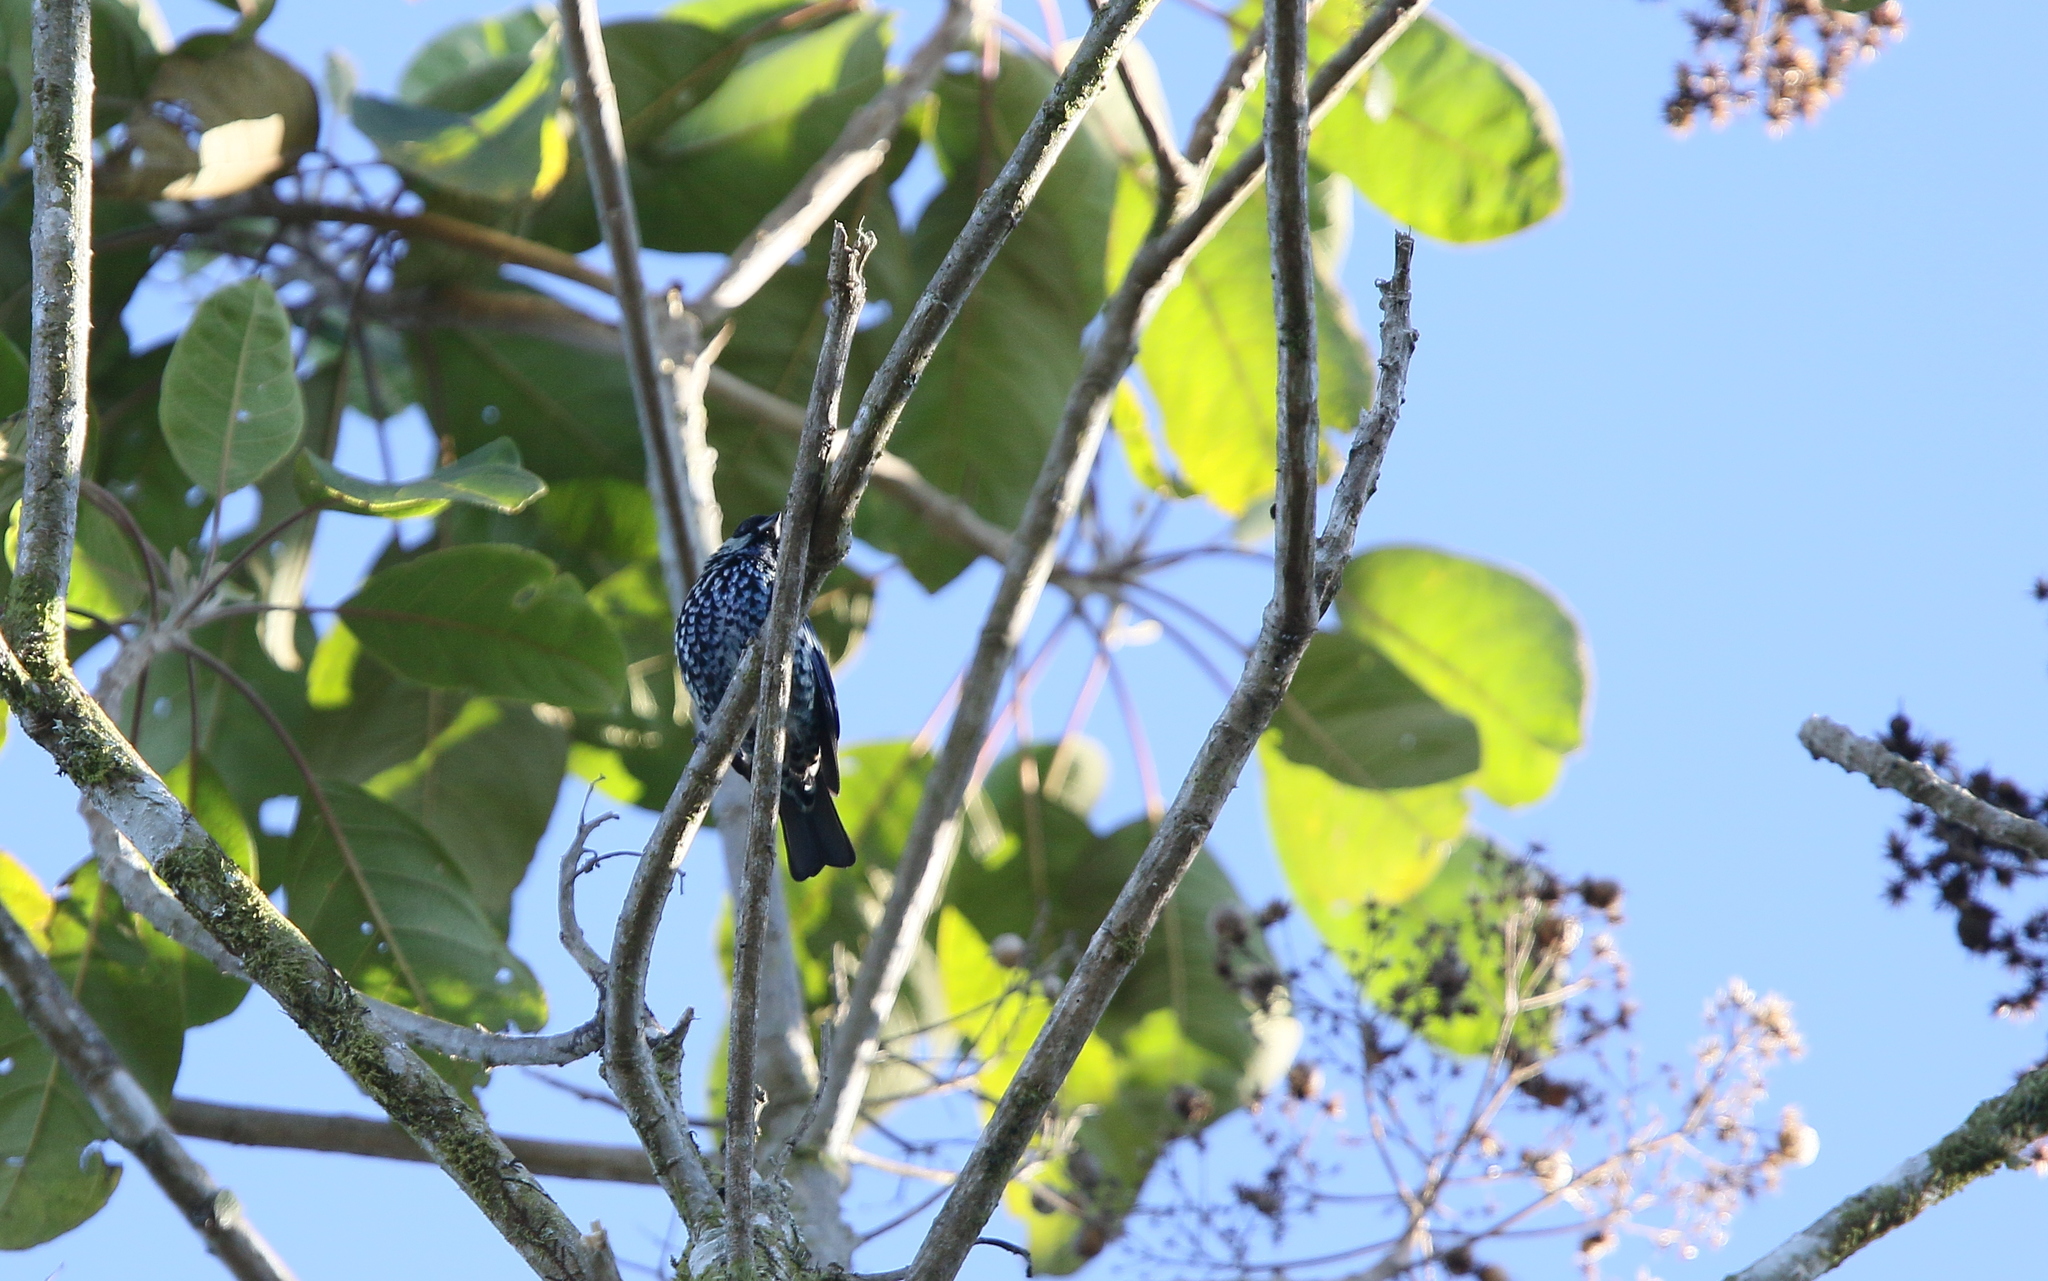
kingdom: Animalia
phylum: Chordata
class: Aves
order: Passeriformes
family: Thraupidae
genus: Tangara
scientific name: Tangara nigroviridis
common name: Beryl-spangled tanager
